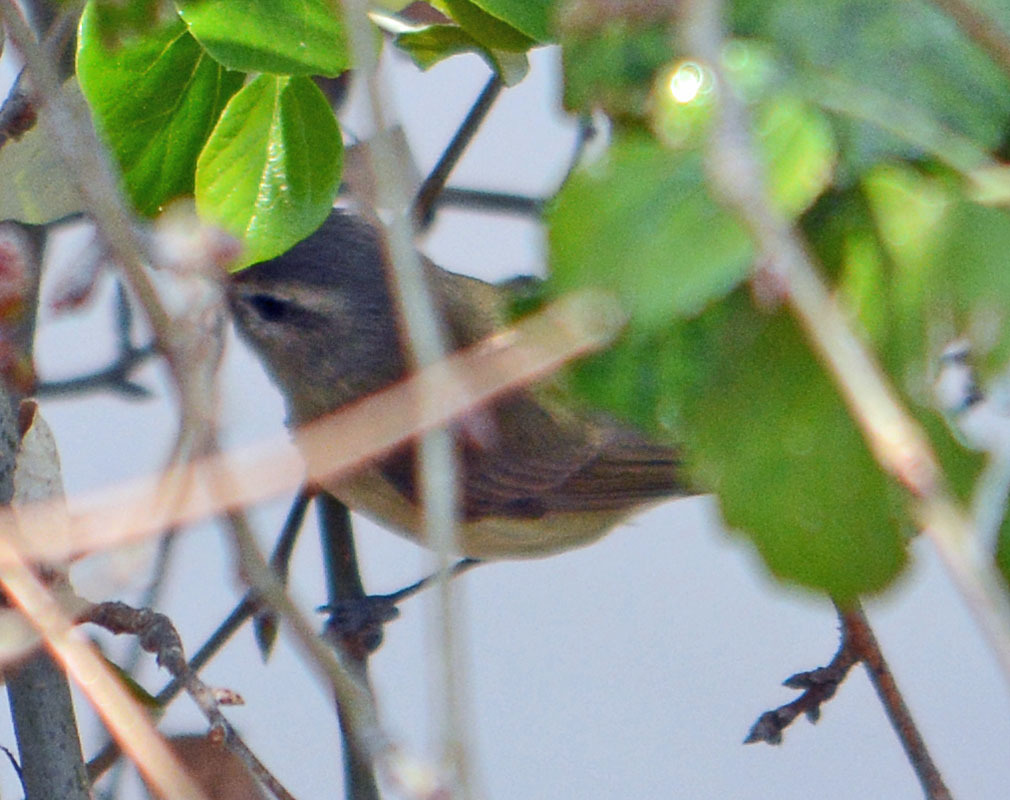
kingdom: Animalia
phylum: Chordata
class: Aves
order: Passeriformes
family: Vireonidae
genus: Vireo
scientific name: Vireo gilvus
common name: Warbling vireo
